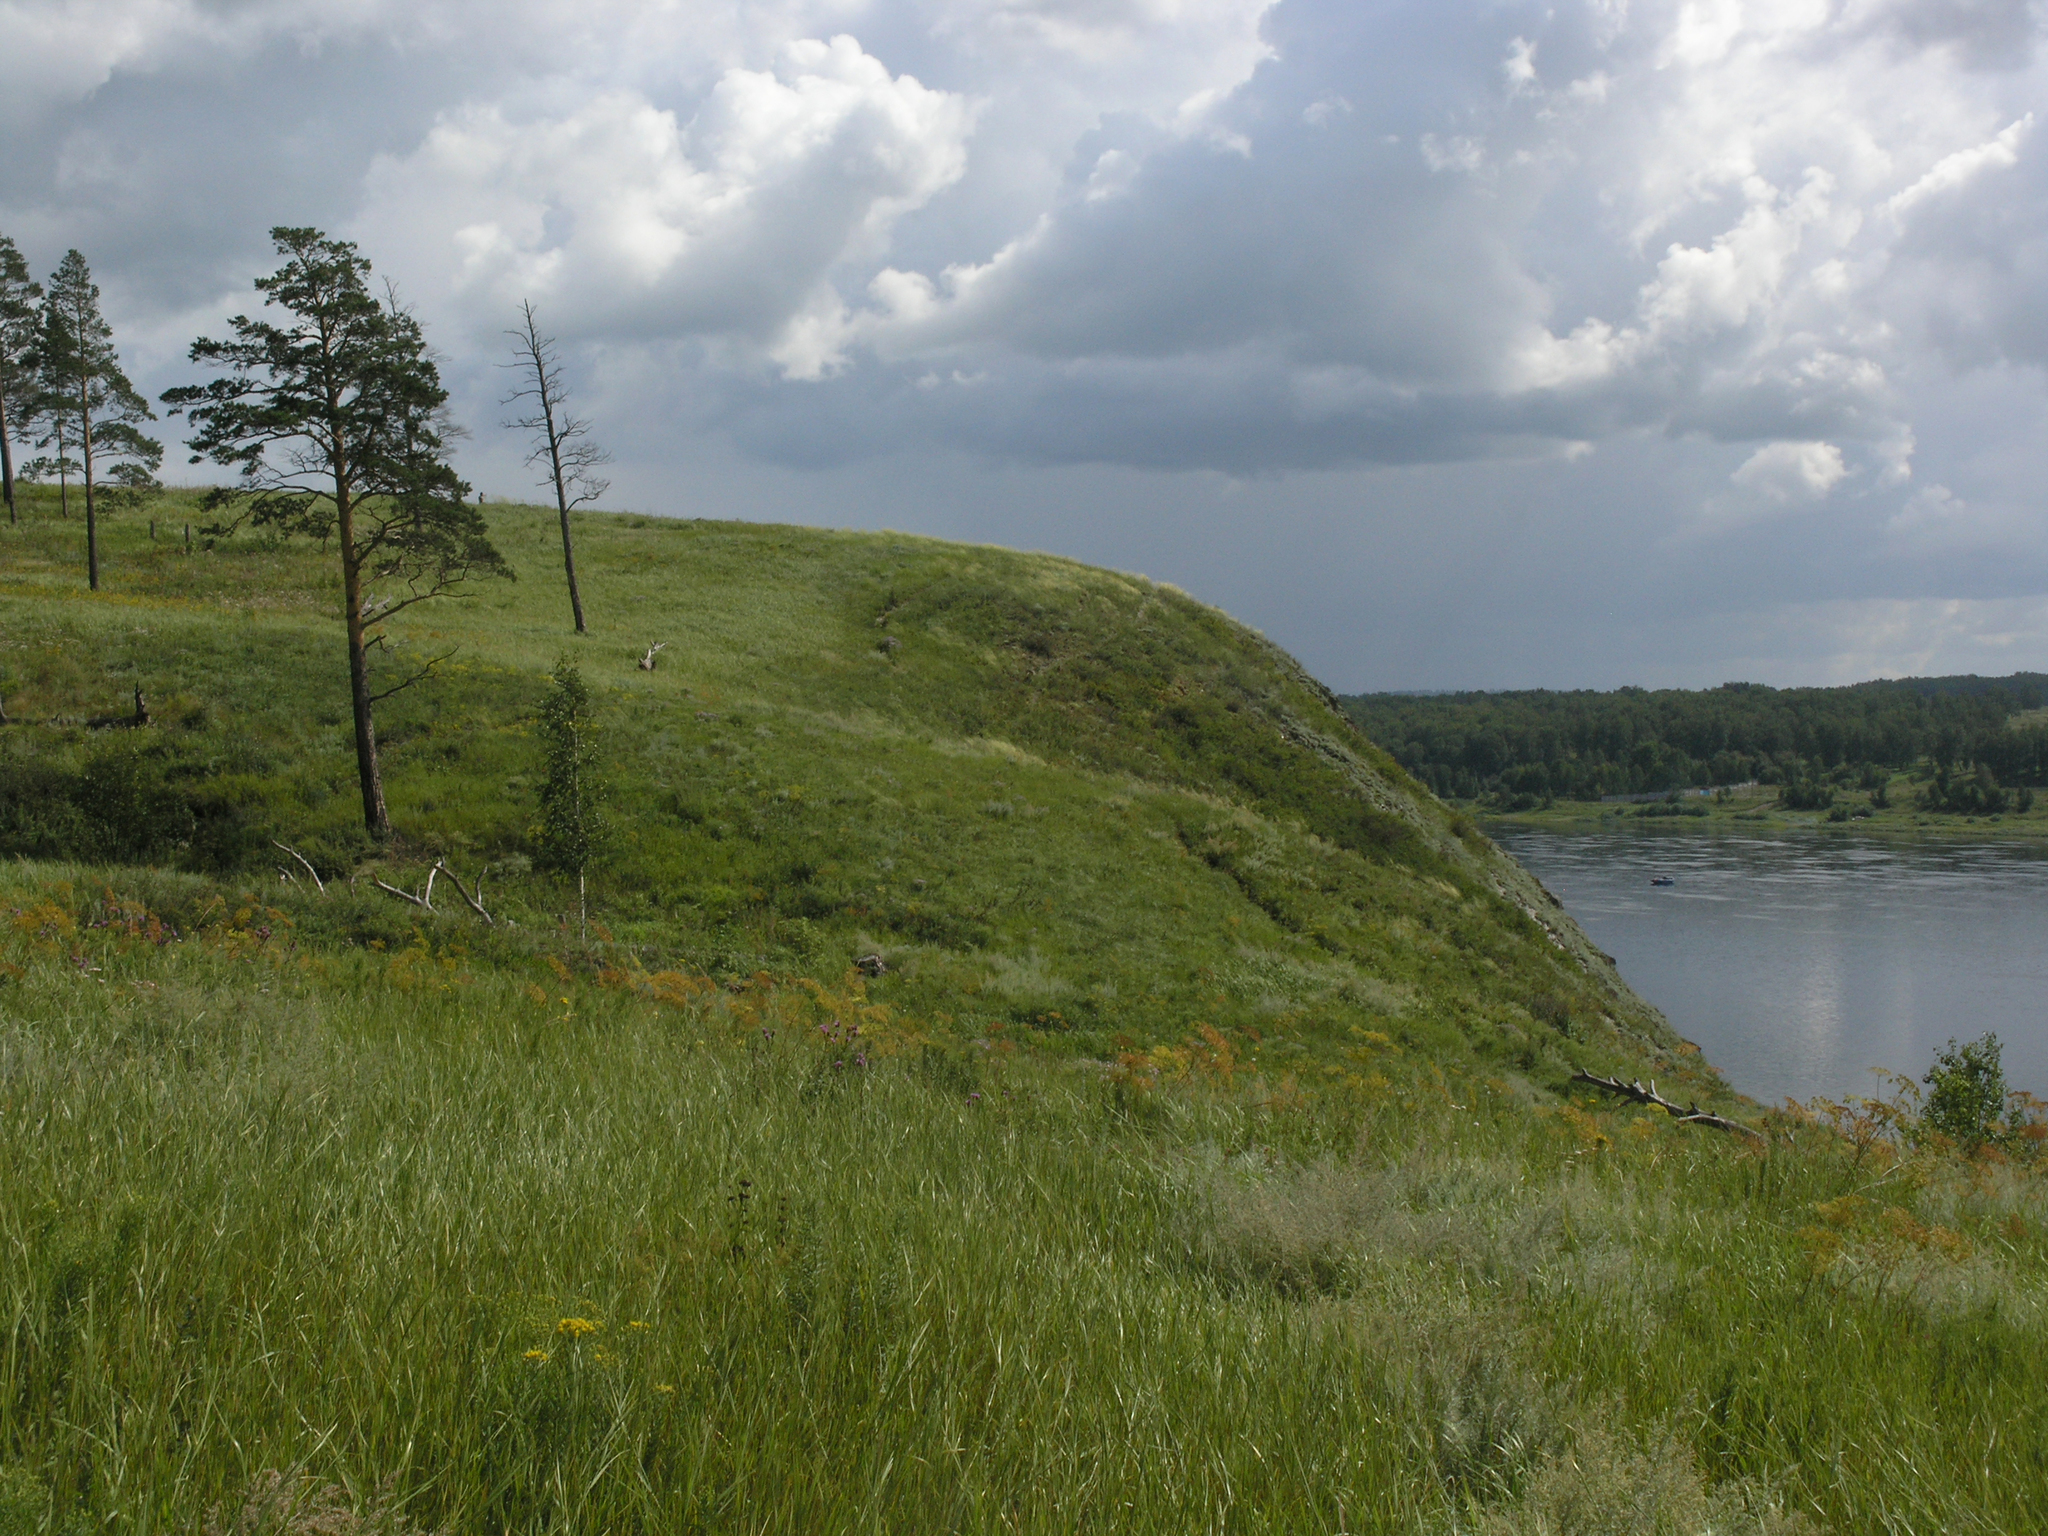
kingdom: Plantae
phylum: Tracheophyta
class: Pinopsida
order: Pinales
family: Pinaceae
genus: Pinus
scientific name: Pinus sylvestris
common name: Scots pine
